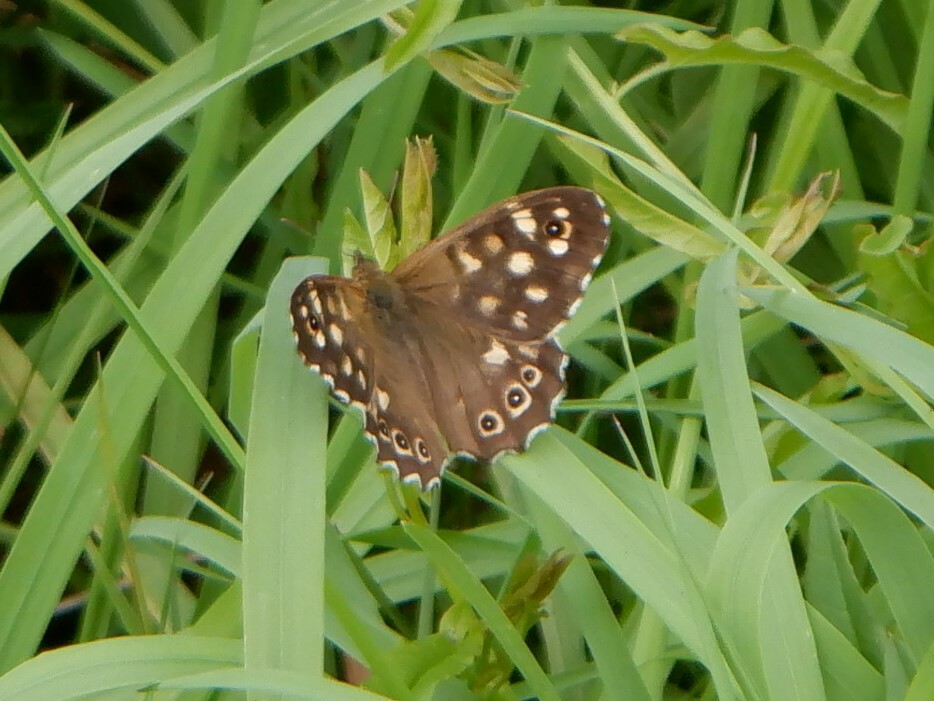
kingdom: Animalia
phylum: Arthropoda
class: Insecta
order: Lepidoptera
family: Nymphalidae
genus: Pararge
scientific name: Pararge aegeria
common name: Speckled wood
